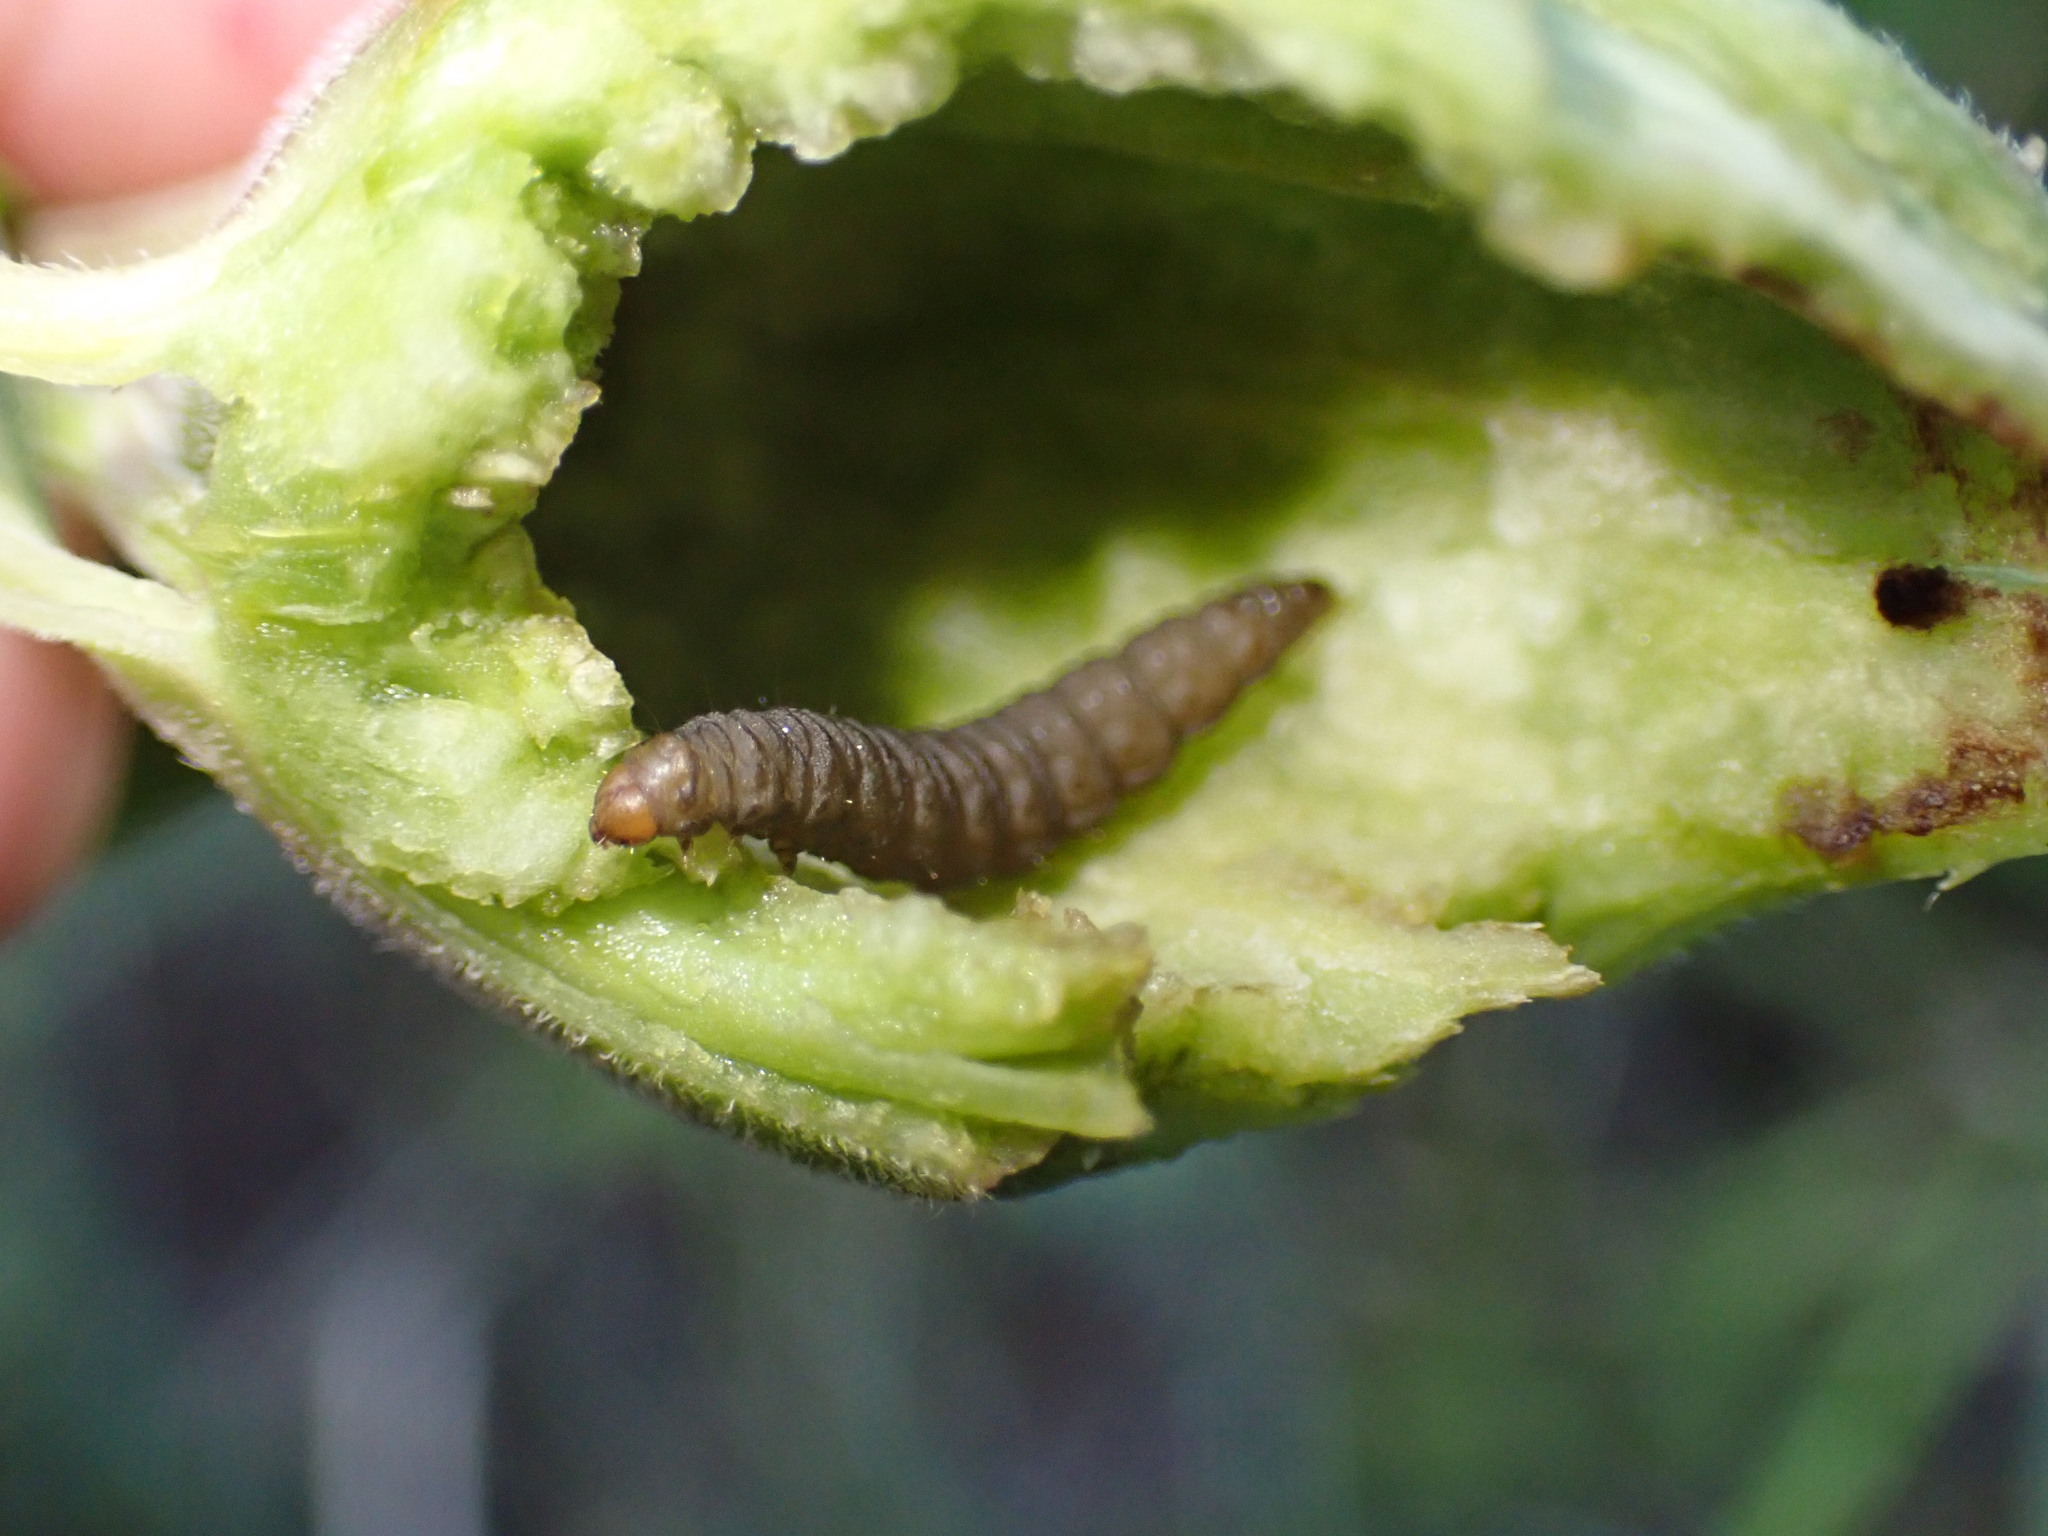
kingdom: Animalia
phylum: Arthropoda
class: Insecta
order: Lepidoptera
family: Gelechiidae
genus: Gnorimoschema
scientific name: Gnorimoschema gallaesolidaginis
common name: Goldenrod elliptical-gall moth
